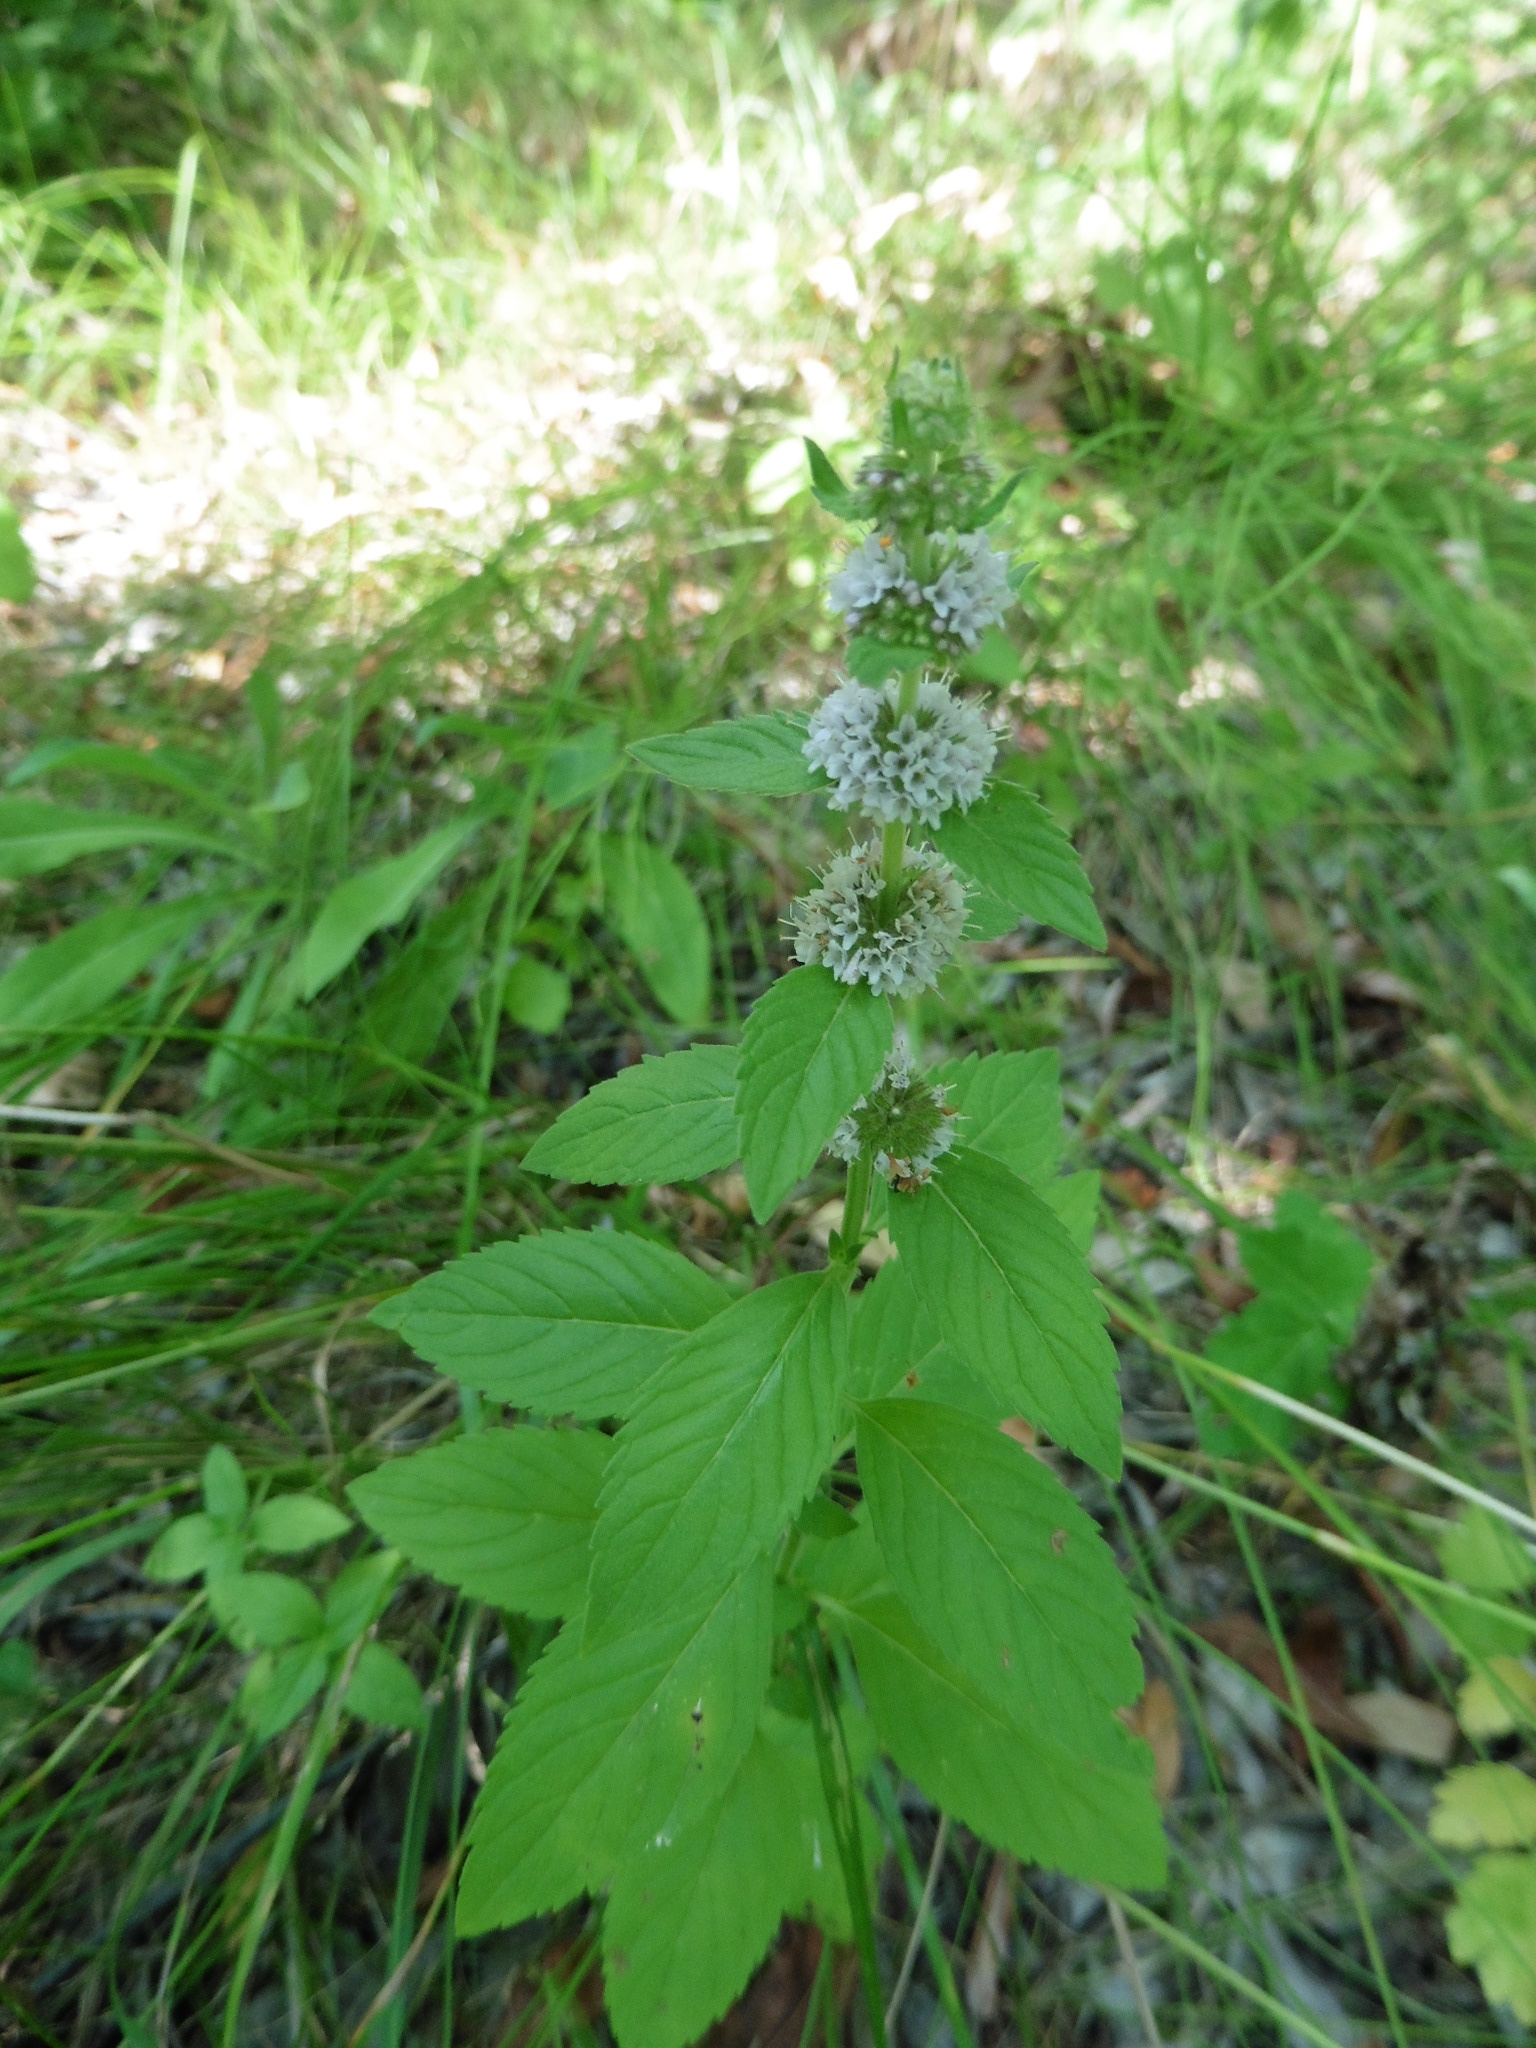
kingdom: Plantae
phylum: Tracheophyta
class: Magnoliopsida
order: Lamiales
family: Lamiaceae
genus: Mentha
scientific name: Mentha arvensis
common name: Corn mint
